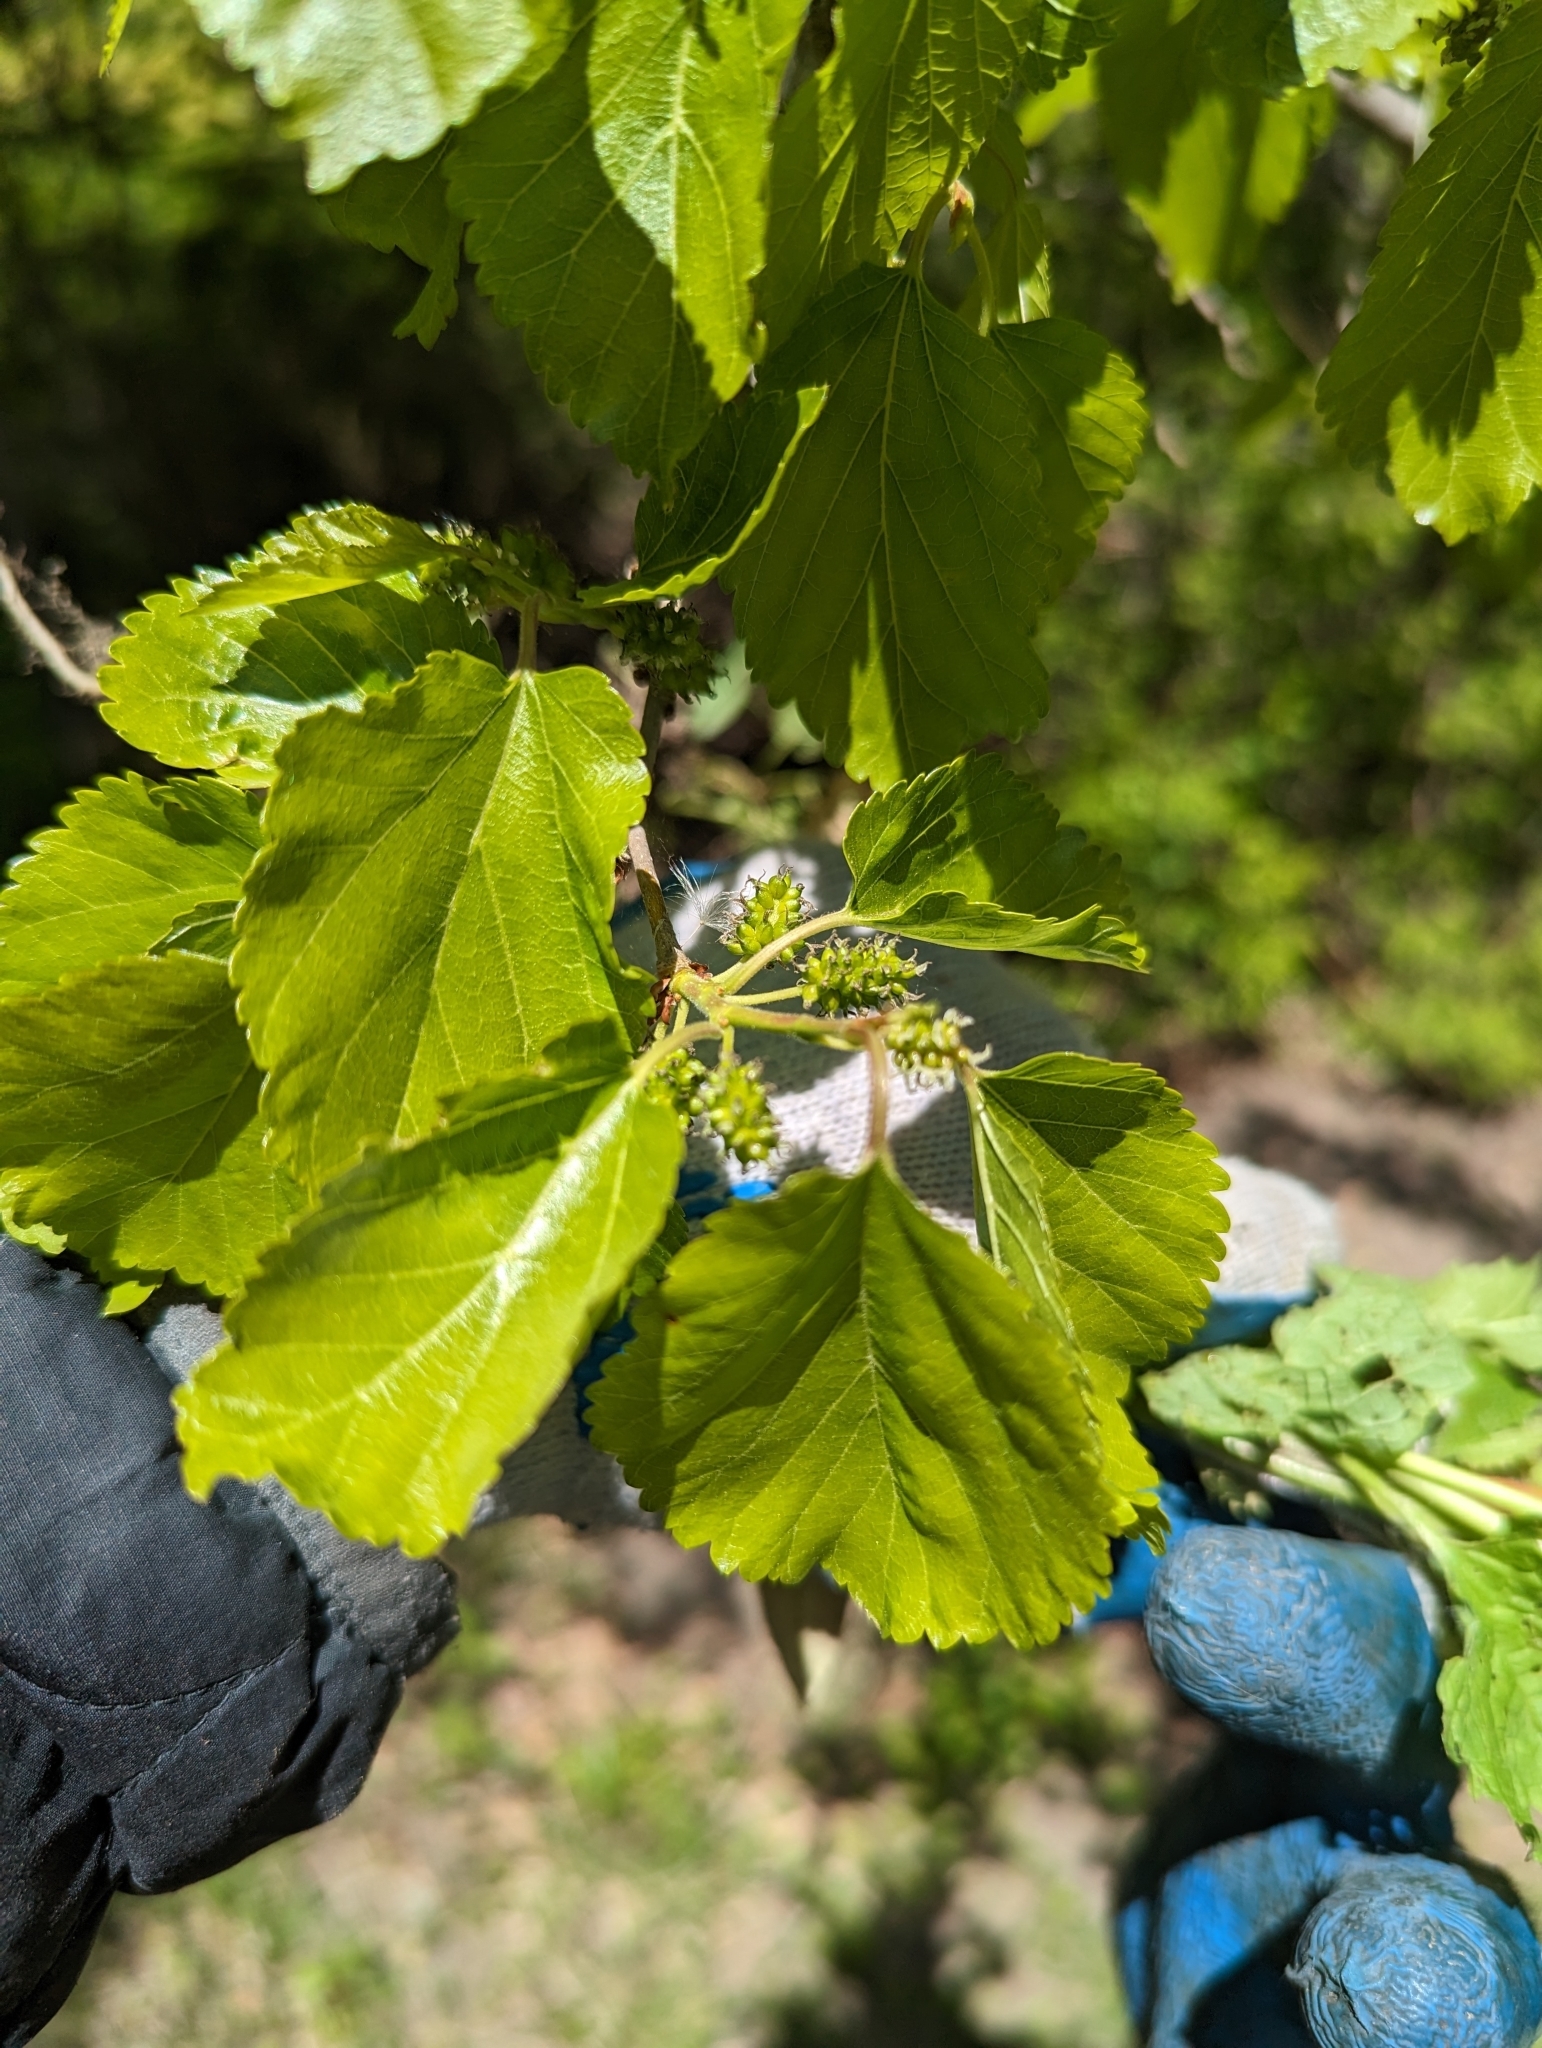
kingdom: Plantae
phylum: Tracheophyta
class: Magnoliopsida
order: Rosales
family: Moraceae
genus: Morus
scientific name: Morus alba
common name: White mulberry
